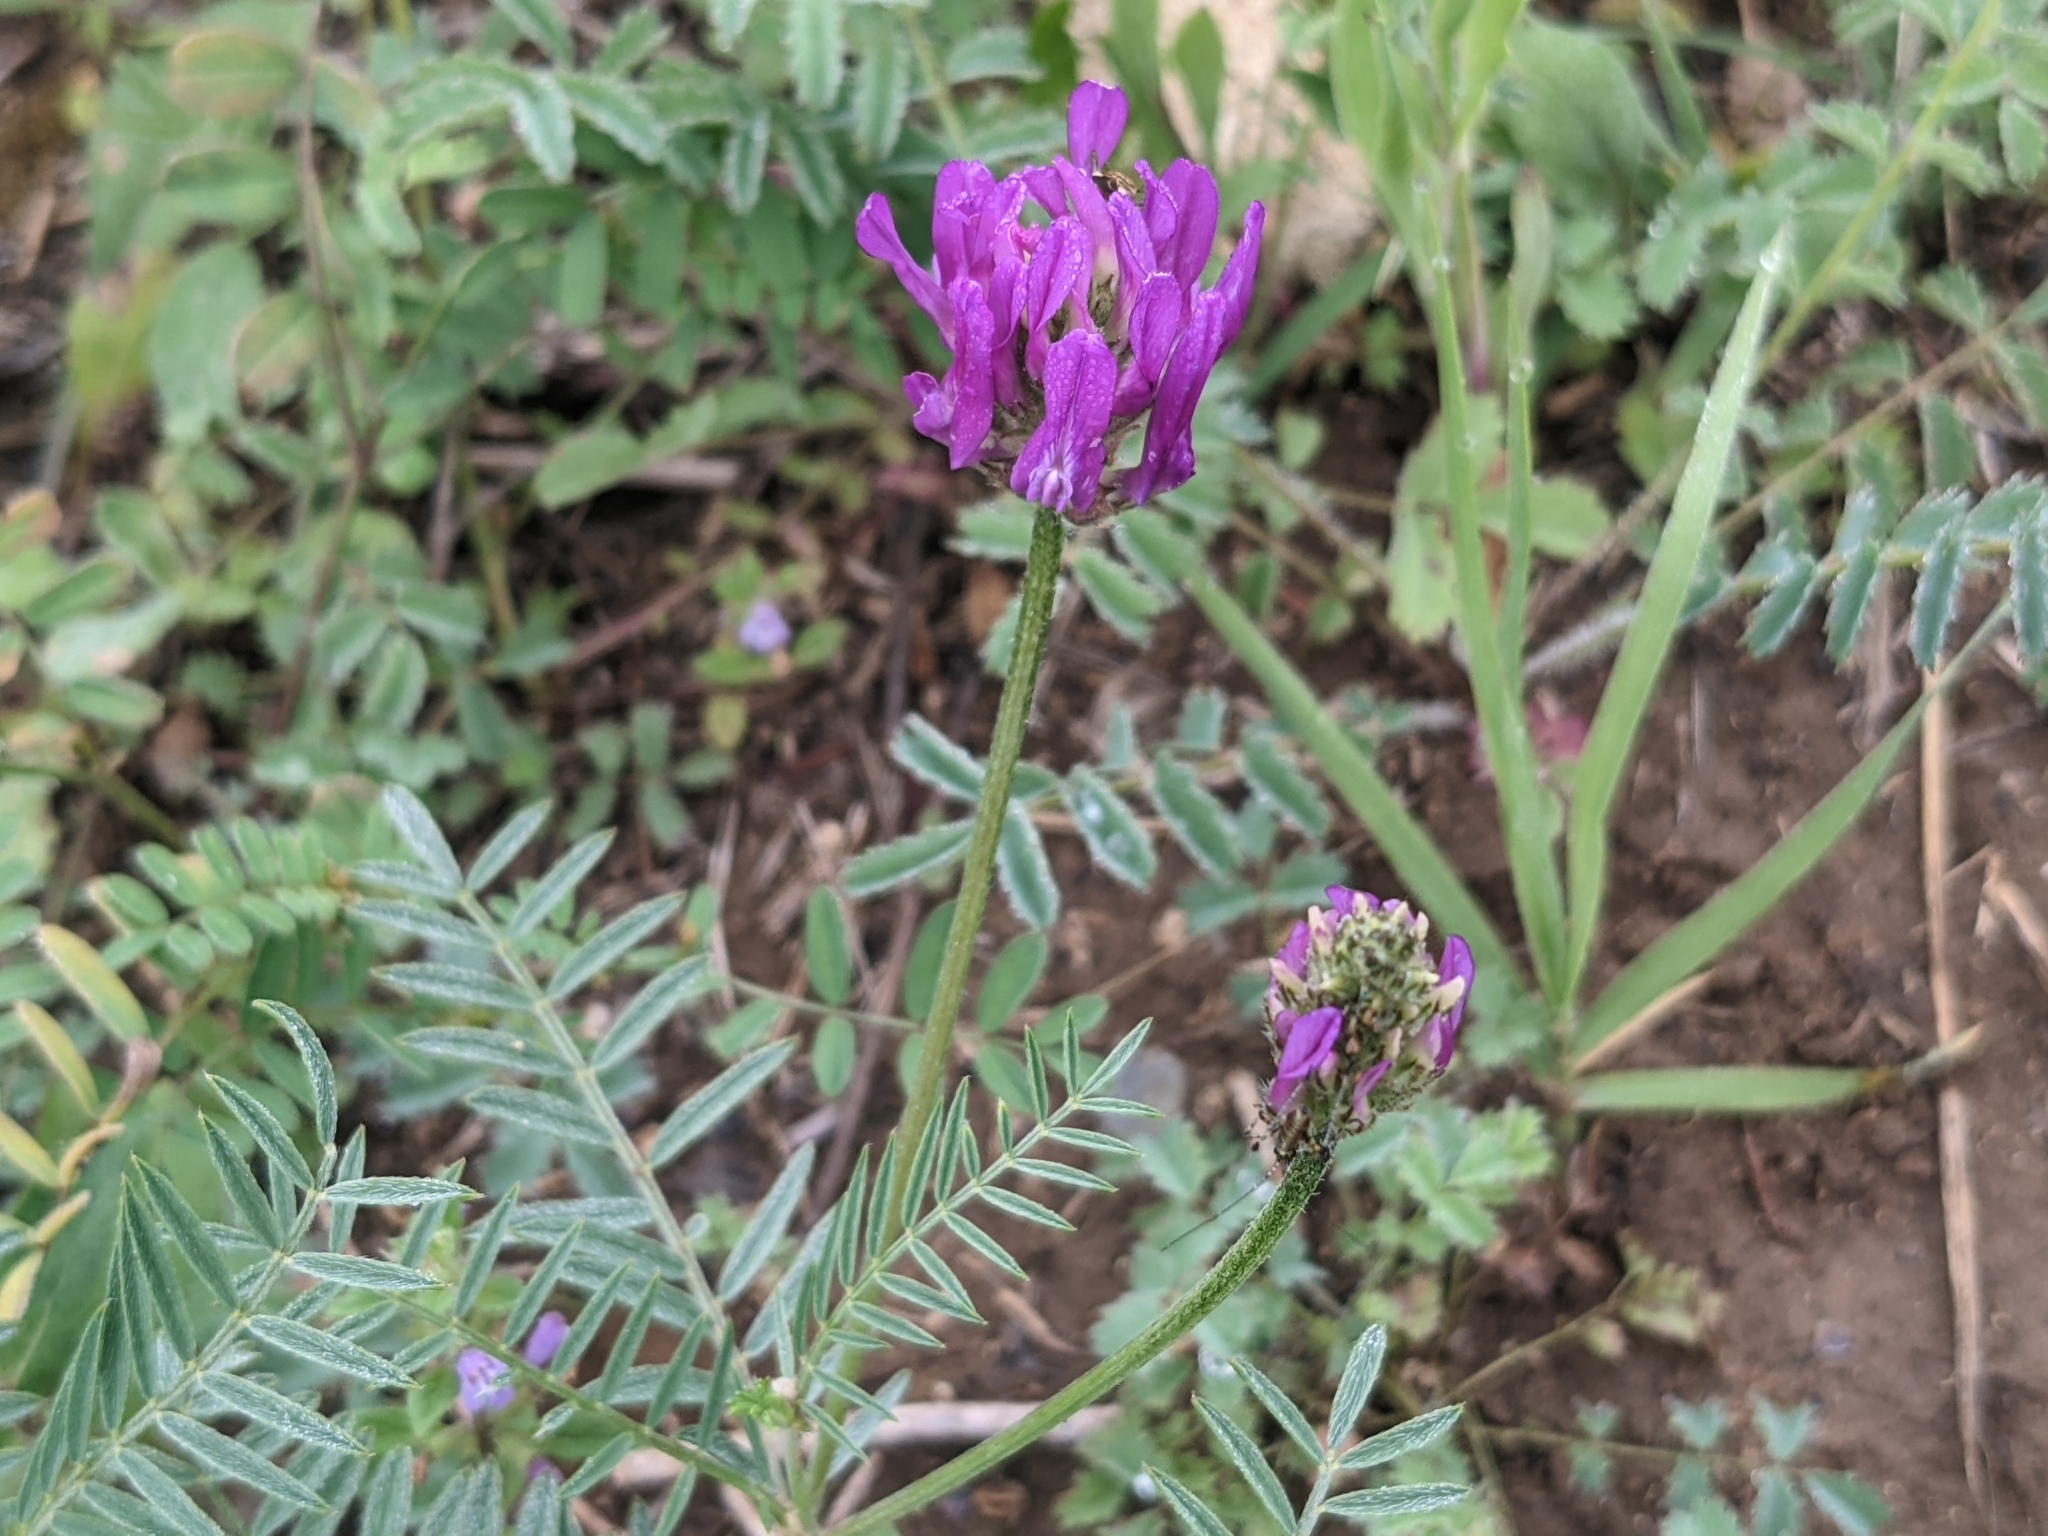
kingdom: Plantae
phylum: Tracheophyta
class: Magnoliopsida
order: Fabales
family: Fabaceae
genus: Astragalus
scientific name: Astragalus onobrychis
